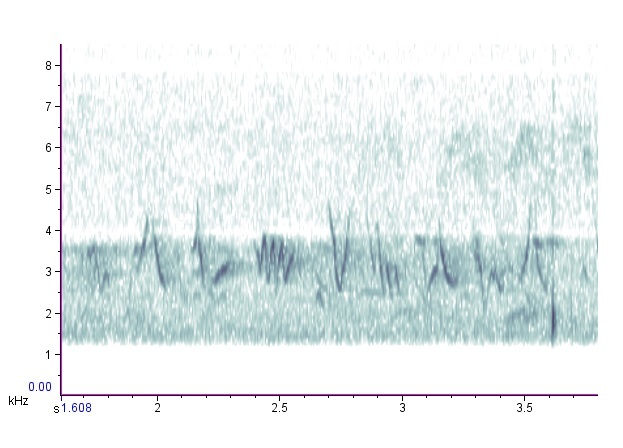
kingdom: Animalia
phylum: Chordata
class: Aves
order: Passeriformes
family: Cardinalidae
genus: Passerina
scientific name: Passerina caerulea
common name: Blue grosbeak
